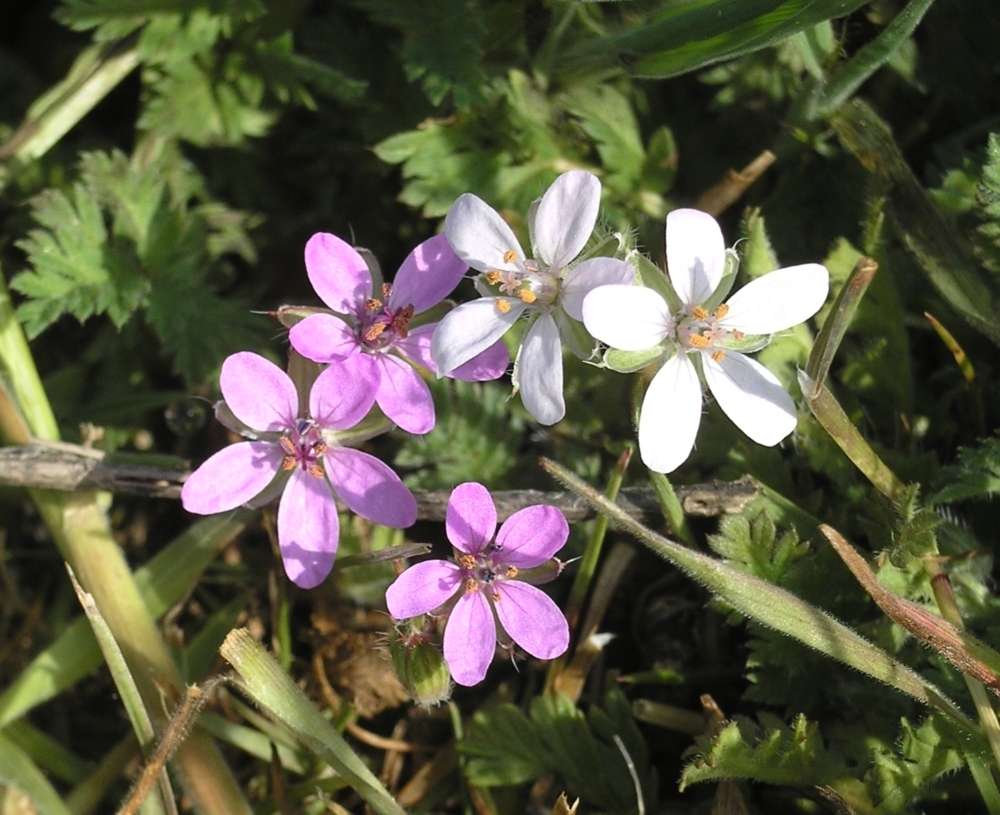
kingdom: Plantae
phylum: Tracheophyta
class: Magnoliopsida
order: Geraniales
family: Geraniaceae
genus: Erodium
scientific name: Erodium cicutarium
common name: Common stork's-bill
